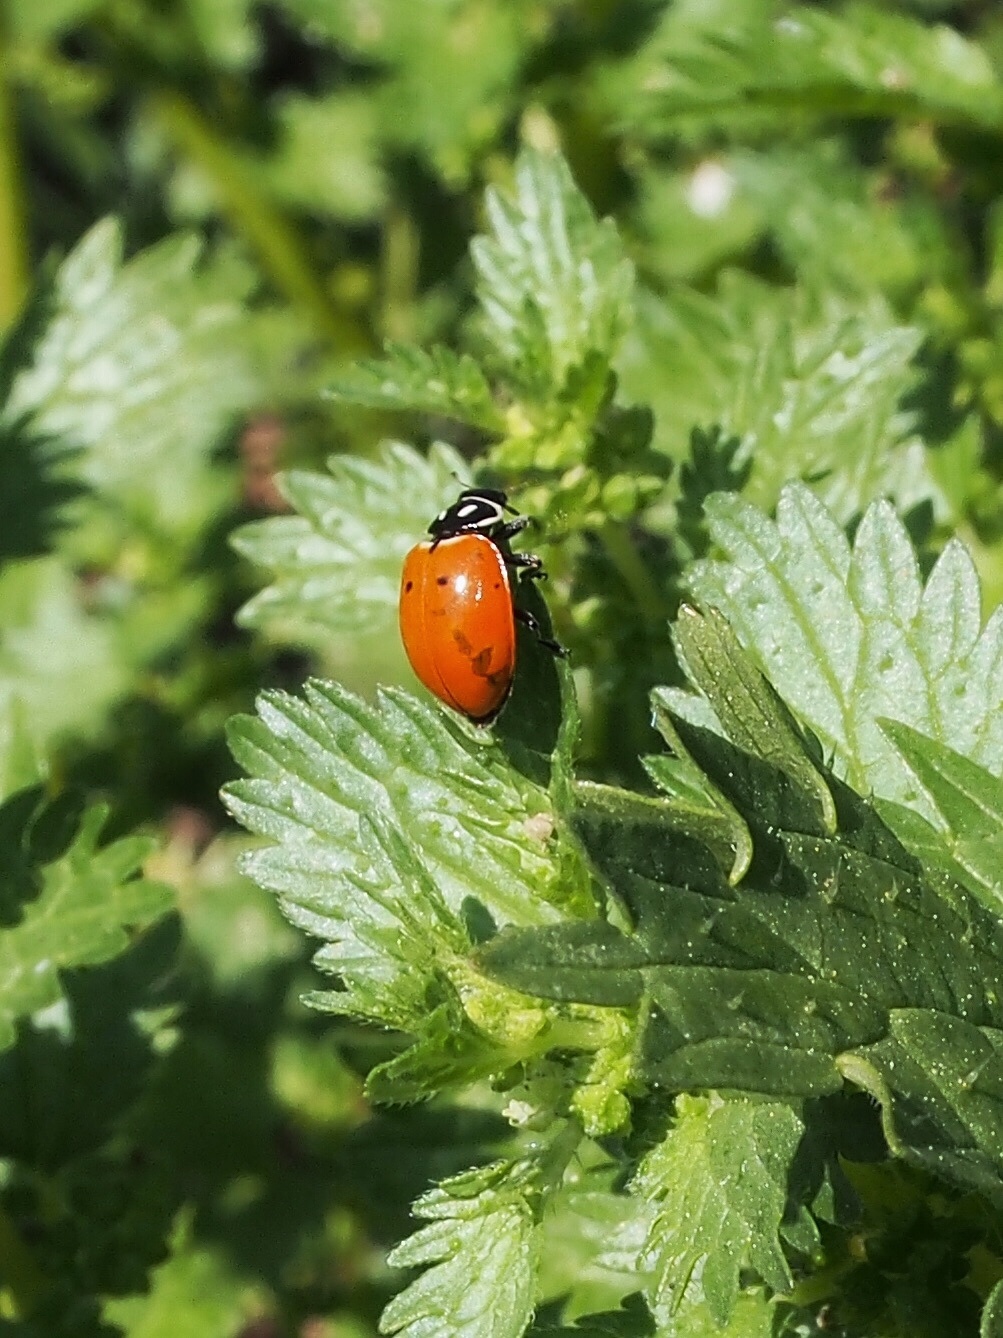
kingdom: Animalia
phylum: Arthropoda
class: Insecta
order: Coleoptera
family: Coccinellidae
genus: Hippodamia
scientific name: Hippodamia convergens
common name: Convergent lady beetle
